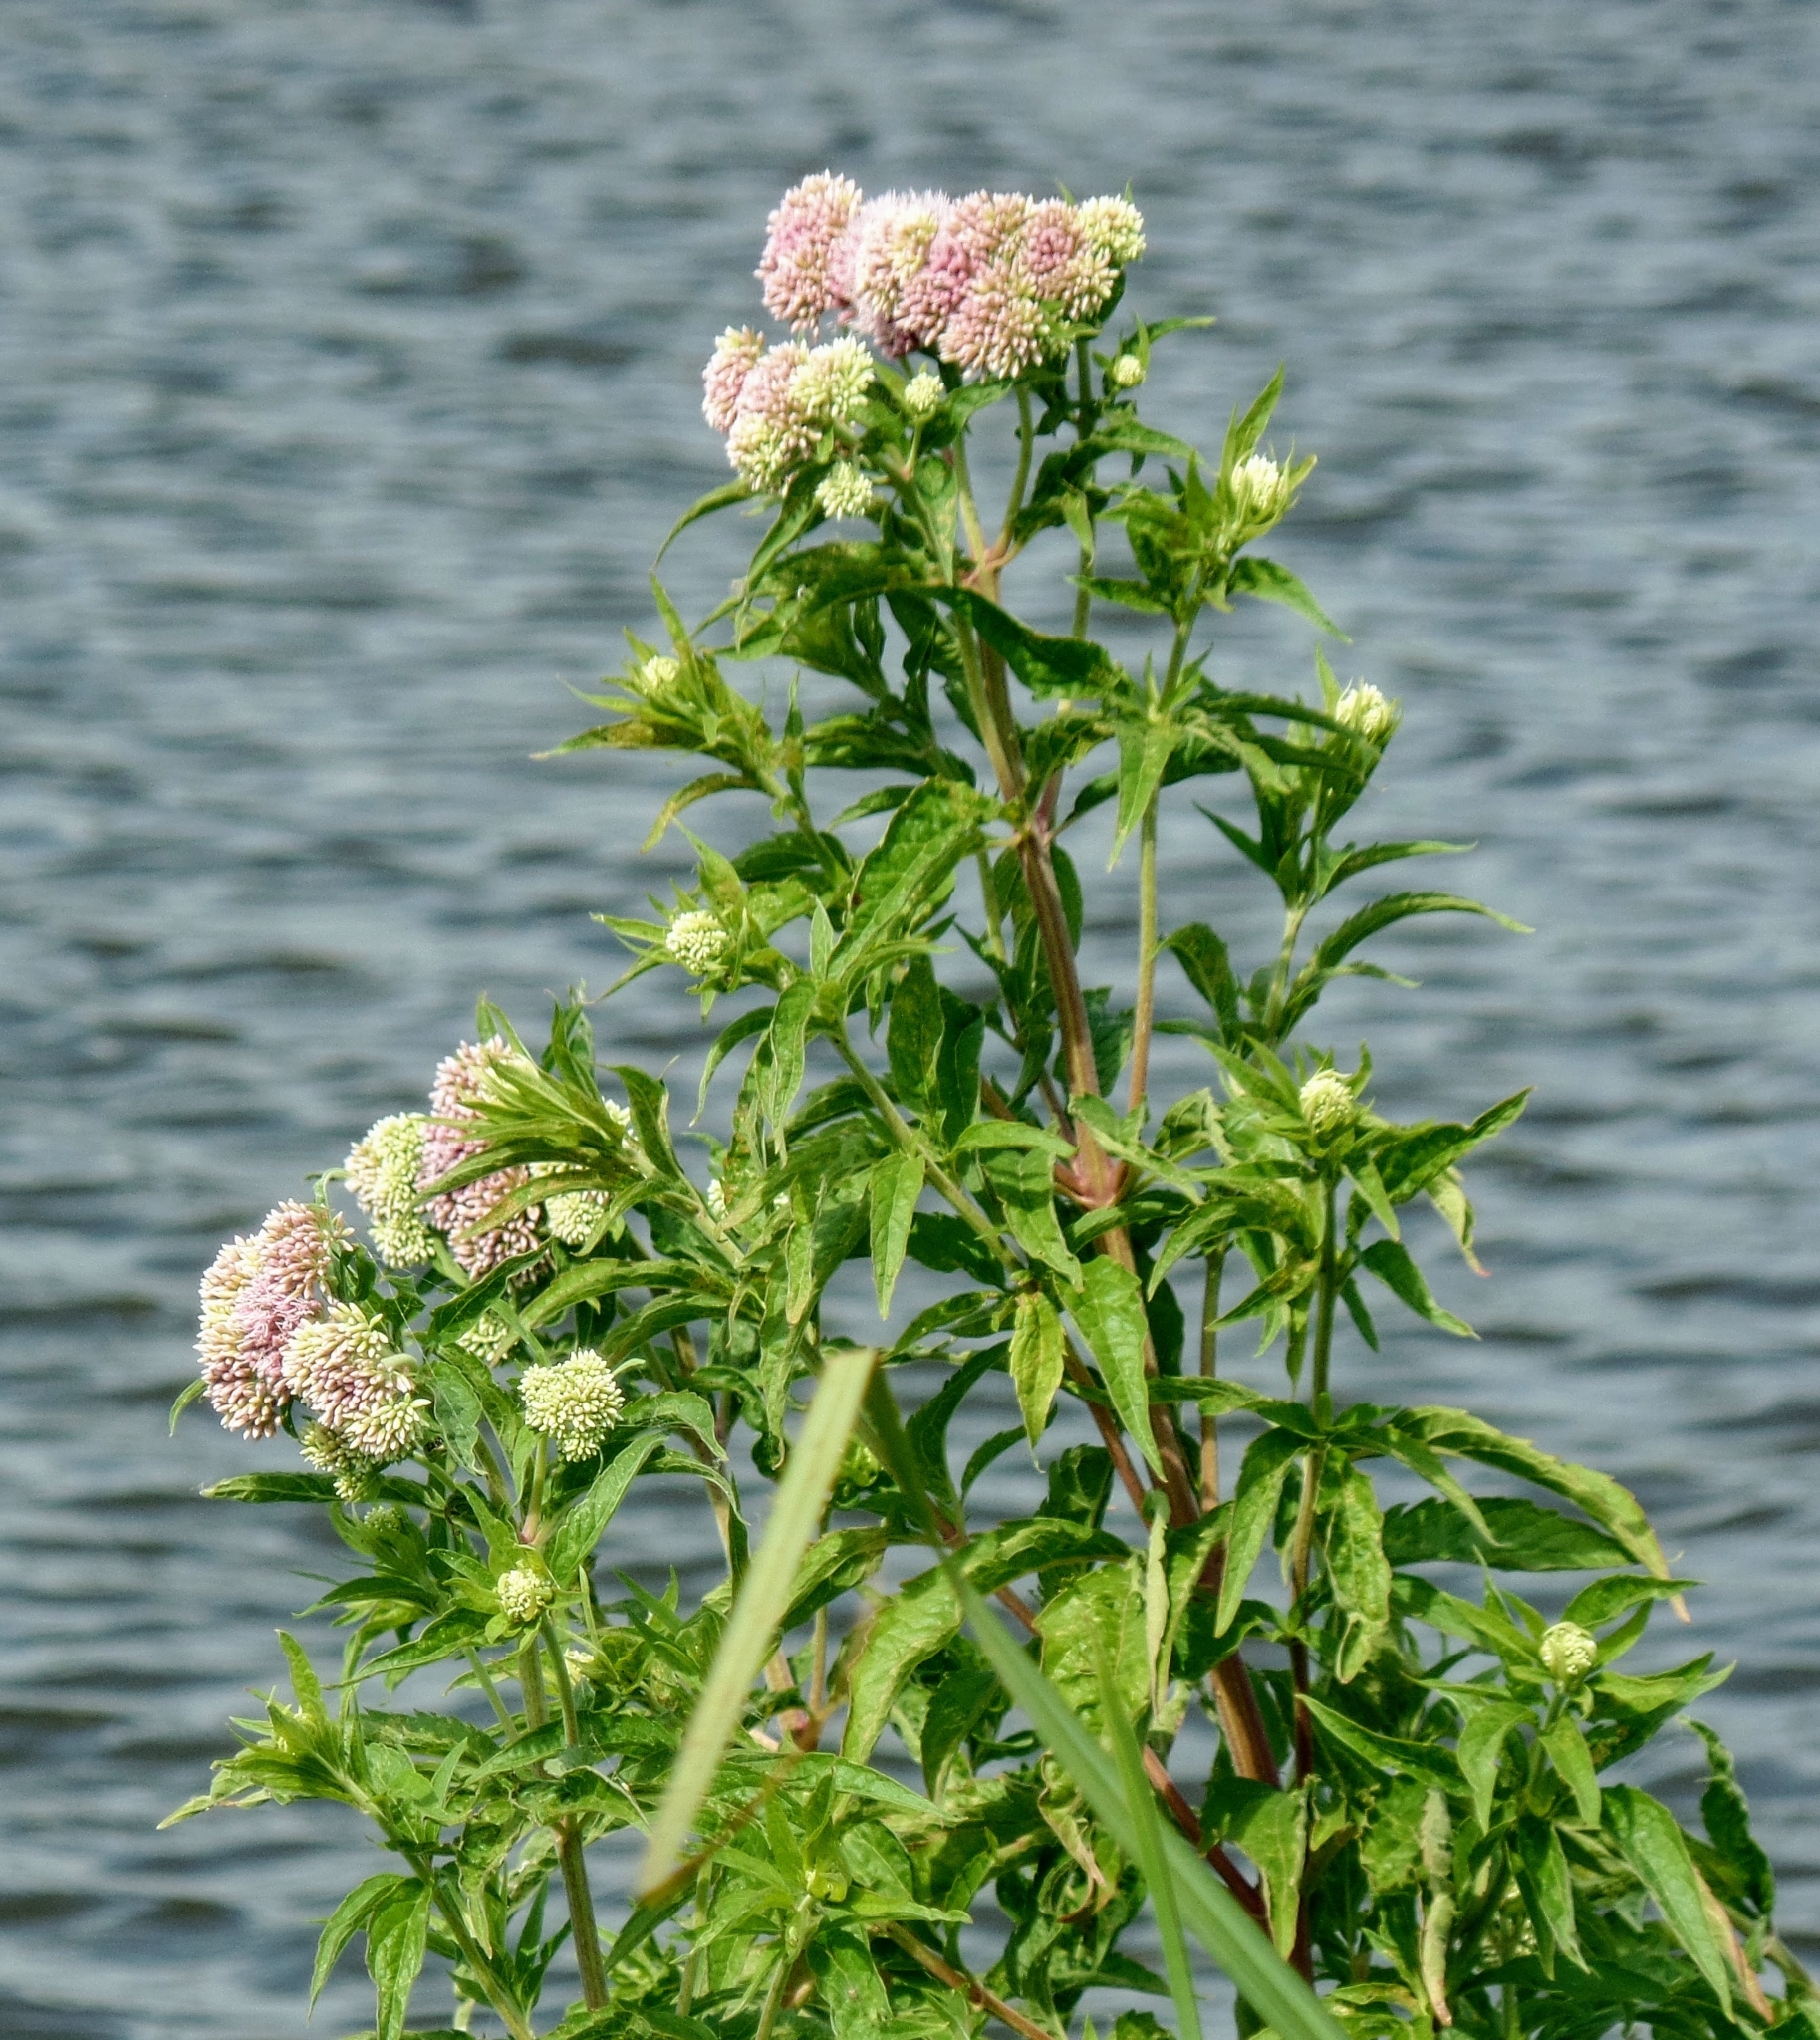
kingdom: Plantae
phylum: Tracheophyta
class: Magnoliopsida
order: Asterales
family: Asteraceae
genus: Eupatorium
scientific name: Eupatorium cannabinum
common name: Hemp-agrimony
